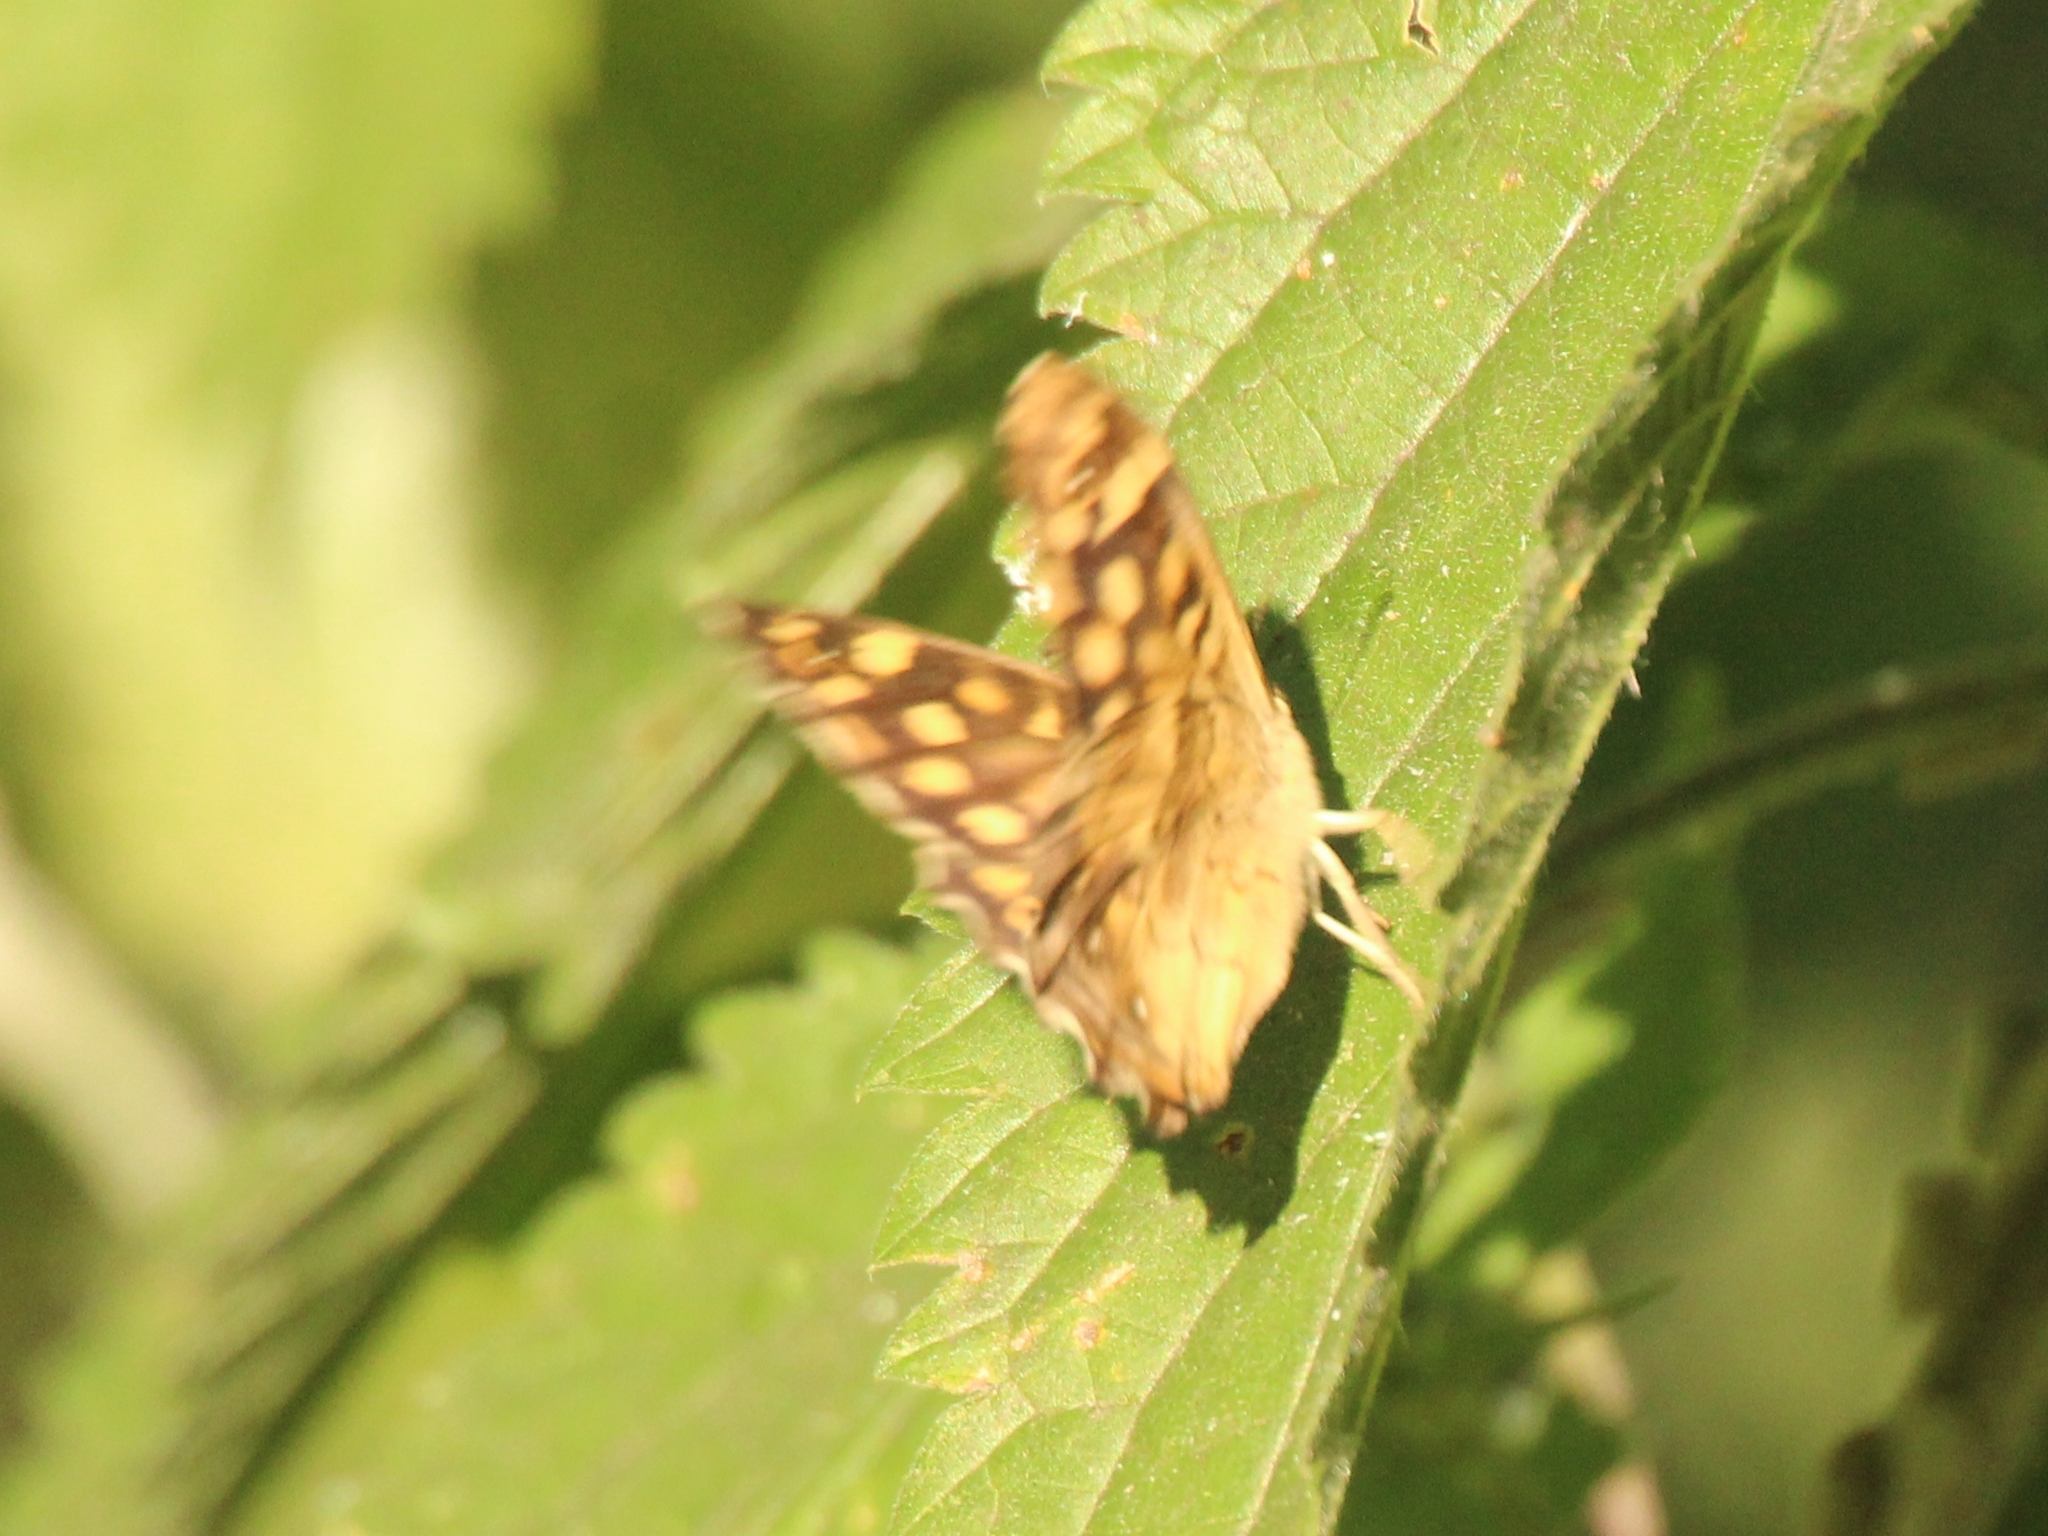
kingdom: Animalia
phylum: Arthropoda
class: Insecta
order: Lepidoptera
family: Nymphalidae
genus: Pararge
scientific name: Pararge aegeria
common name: Speckled wood
